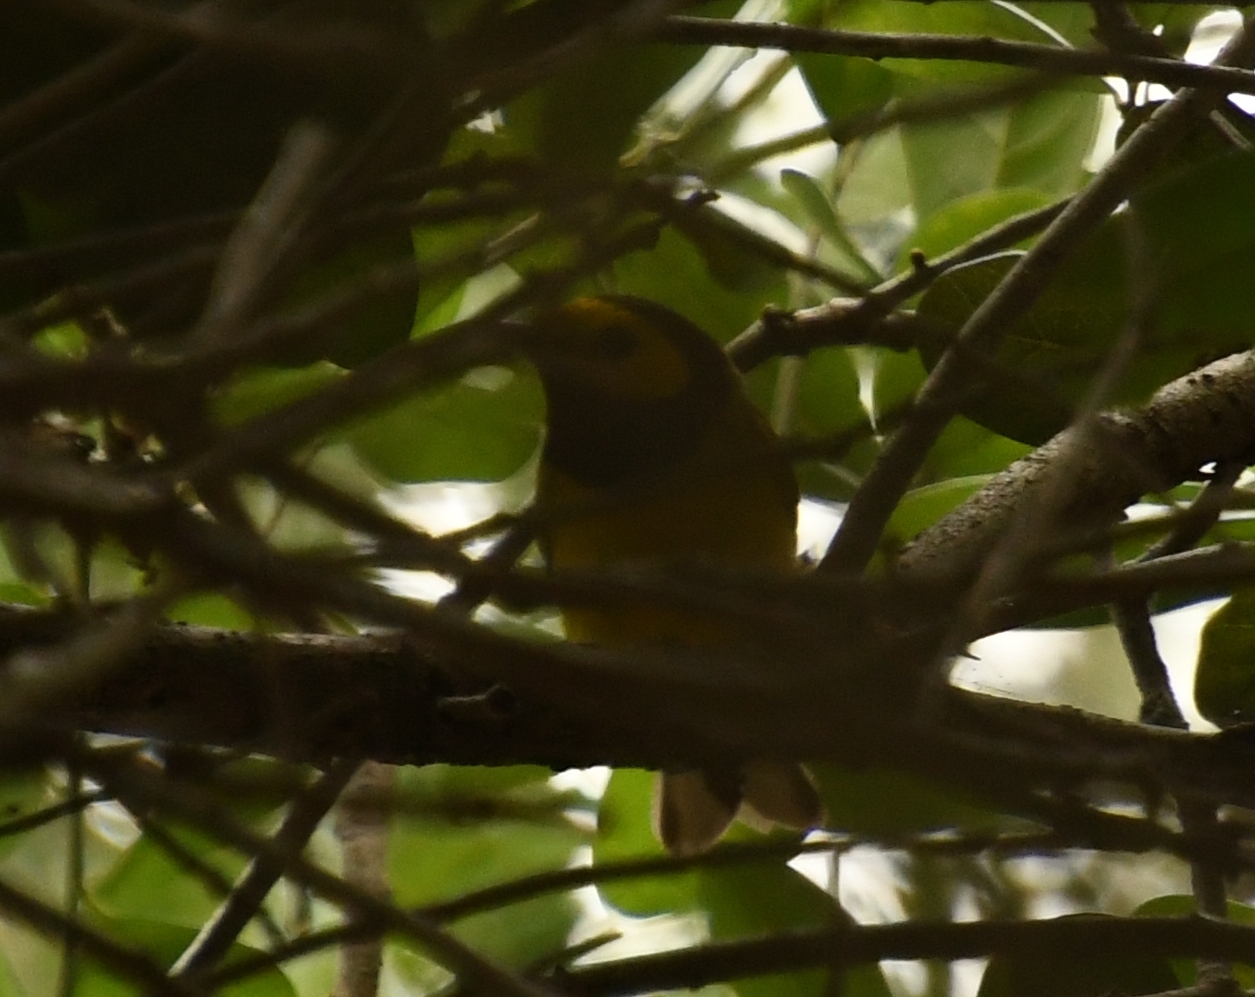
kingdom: Animalia
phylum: Chordata
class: Aves
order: Passeriformes
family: Parulidae
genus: Setophaga
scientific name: Setophaga citrina
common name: Hooded warbler
